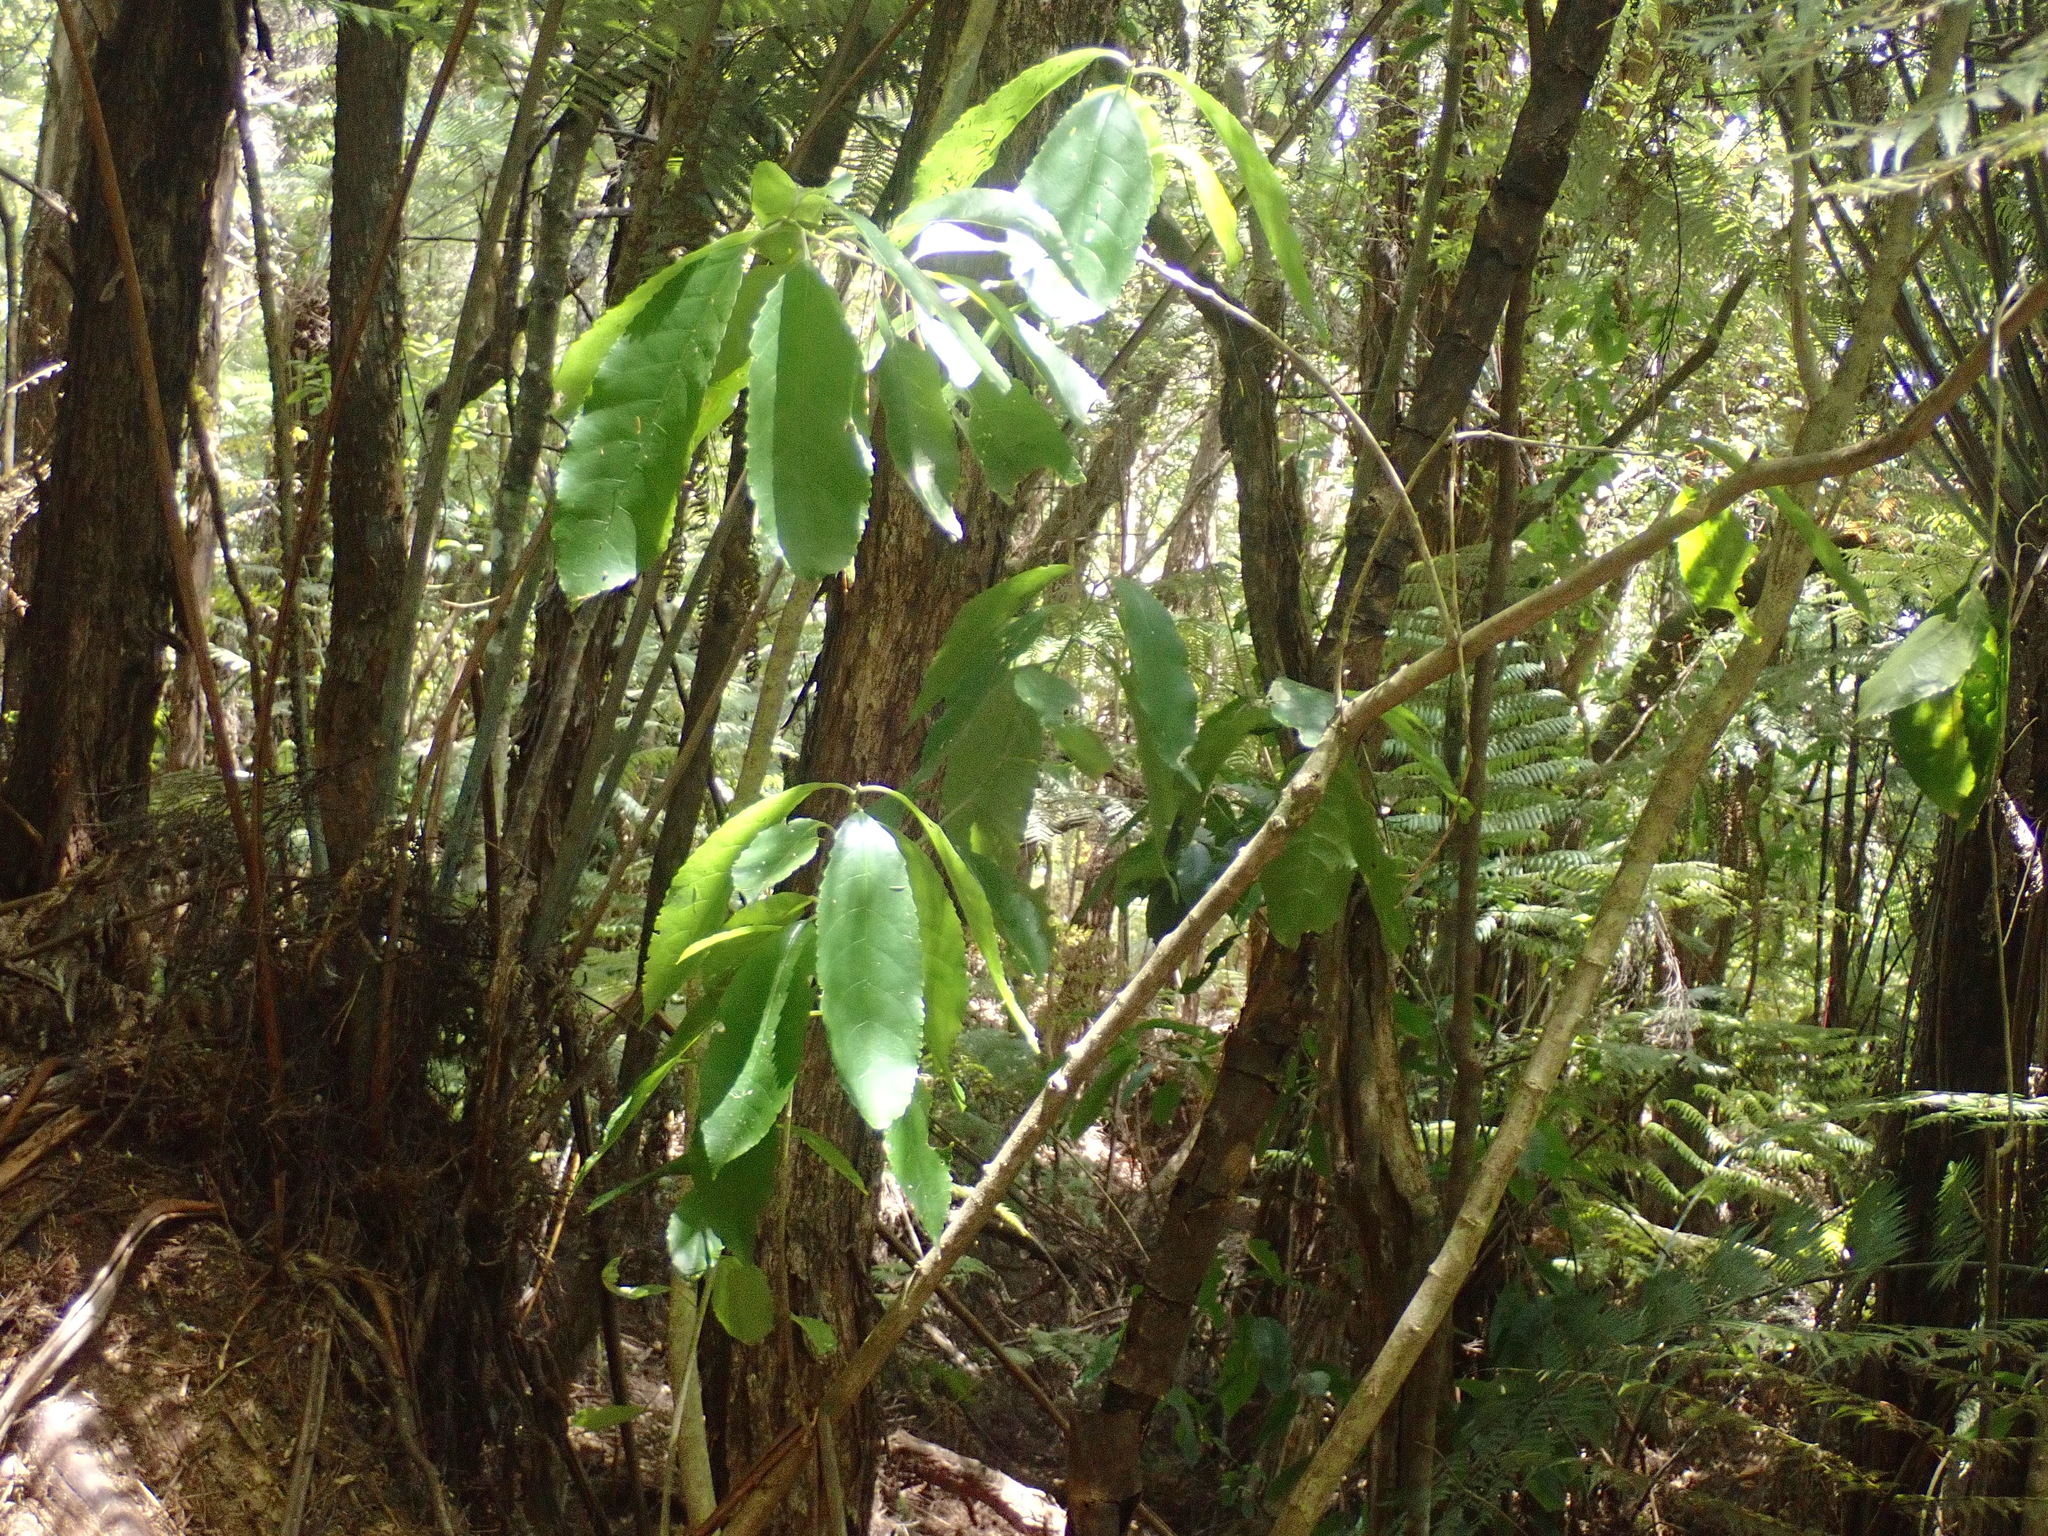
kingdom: Plantae
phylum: Tracheophyta
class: Magnoliopsida
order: Malpighiales
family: Violaceae
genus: Melicytus
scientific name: Melicytus ramiflorus
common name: Mahoe
